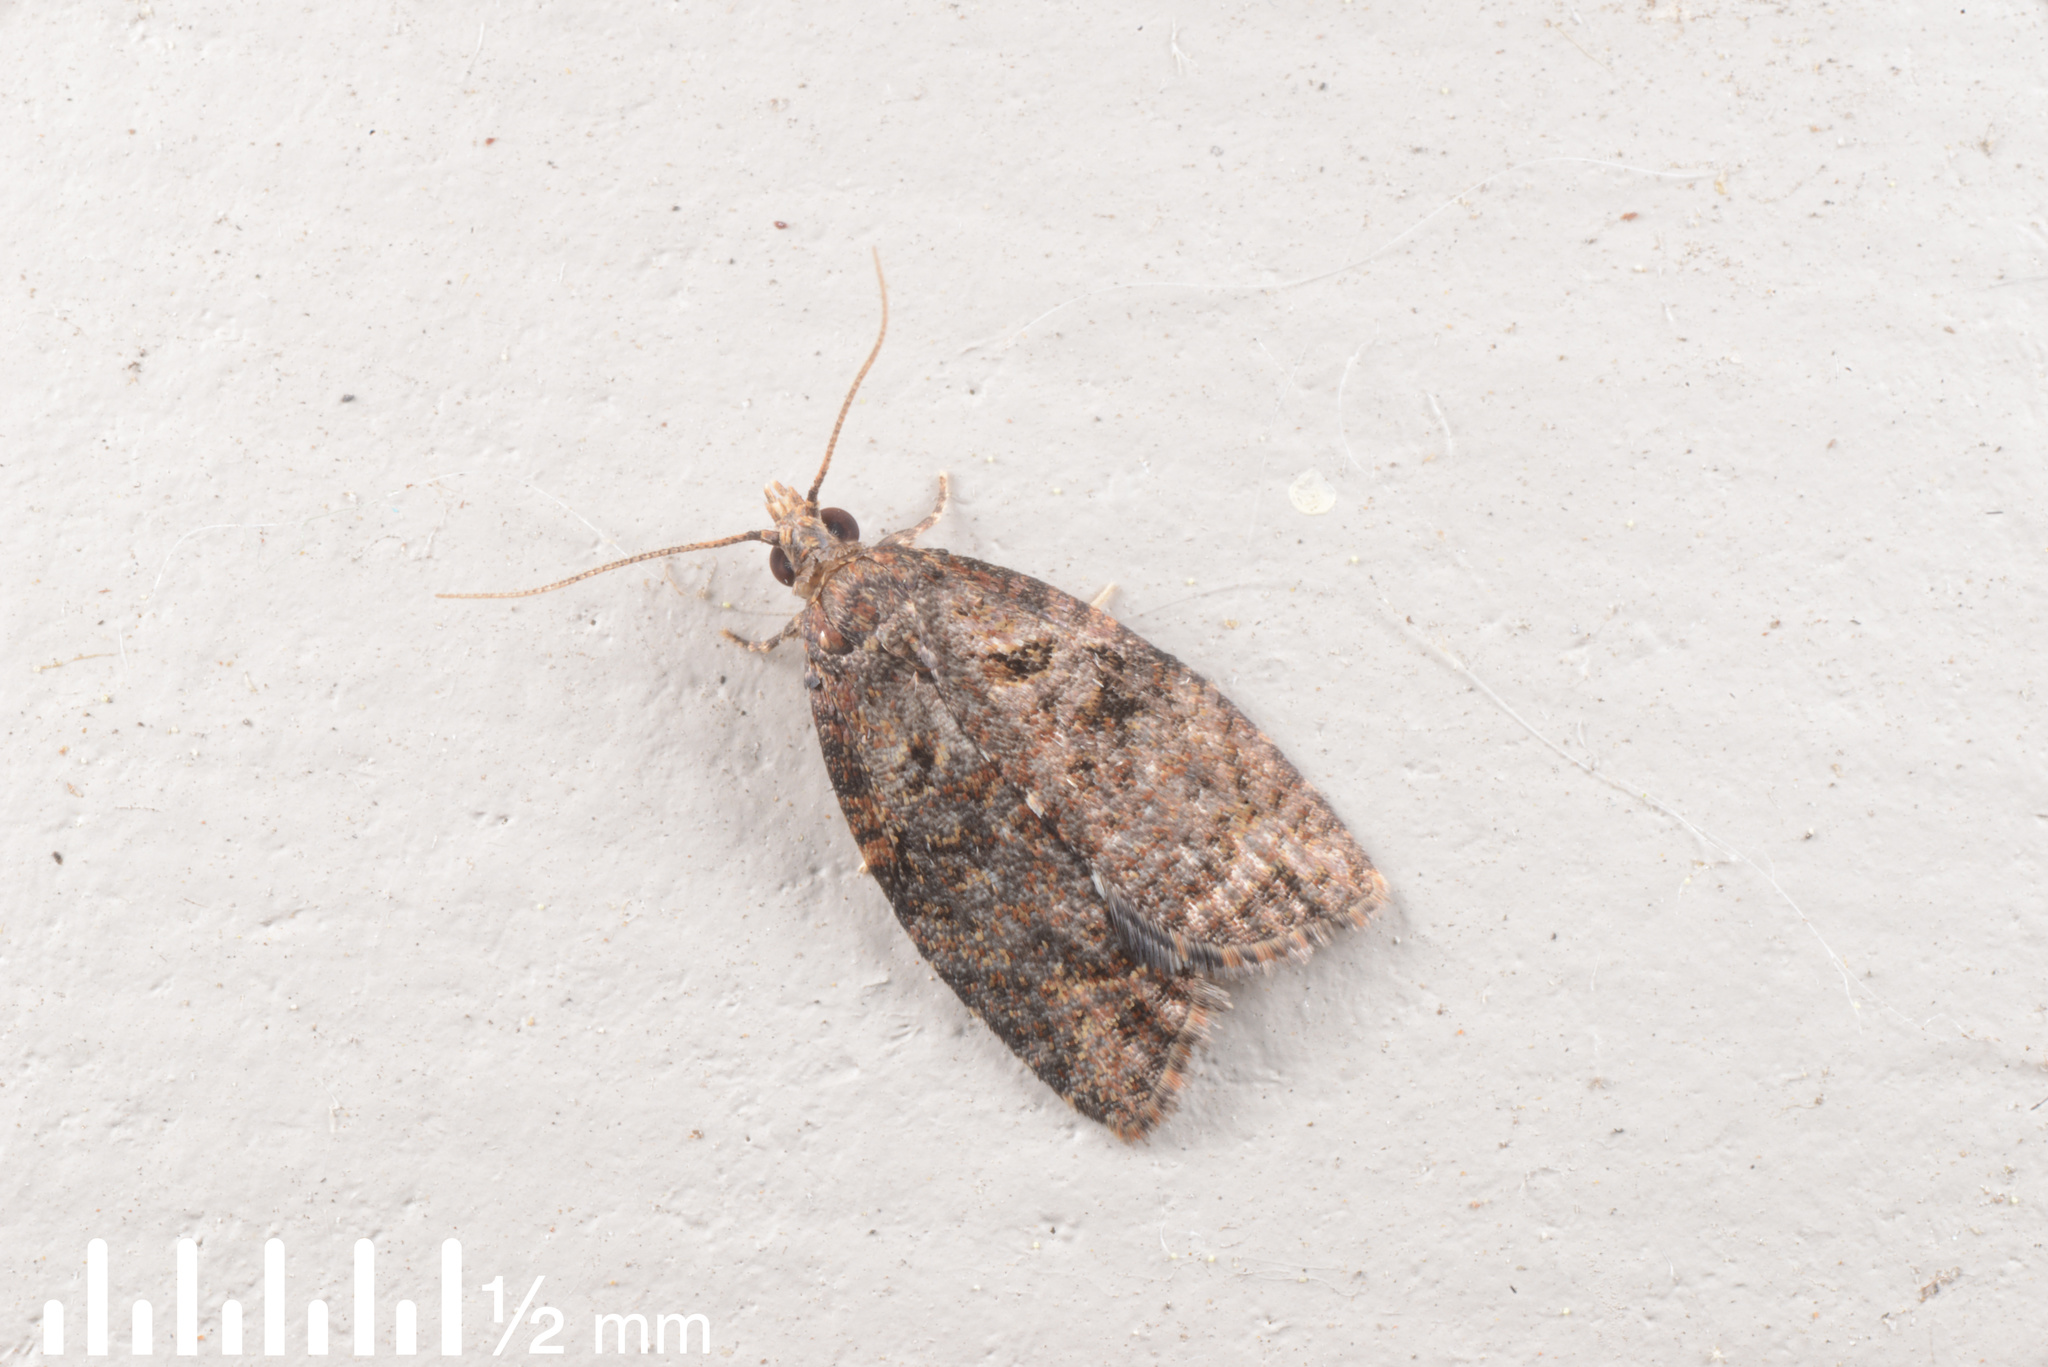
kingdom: Animalia
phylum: Arthropoda
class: Insecta
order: Lepidoptera
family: Tortricidae
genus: Capua
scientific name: Capua intractana
